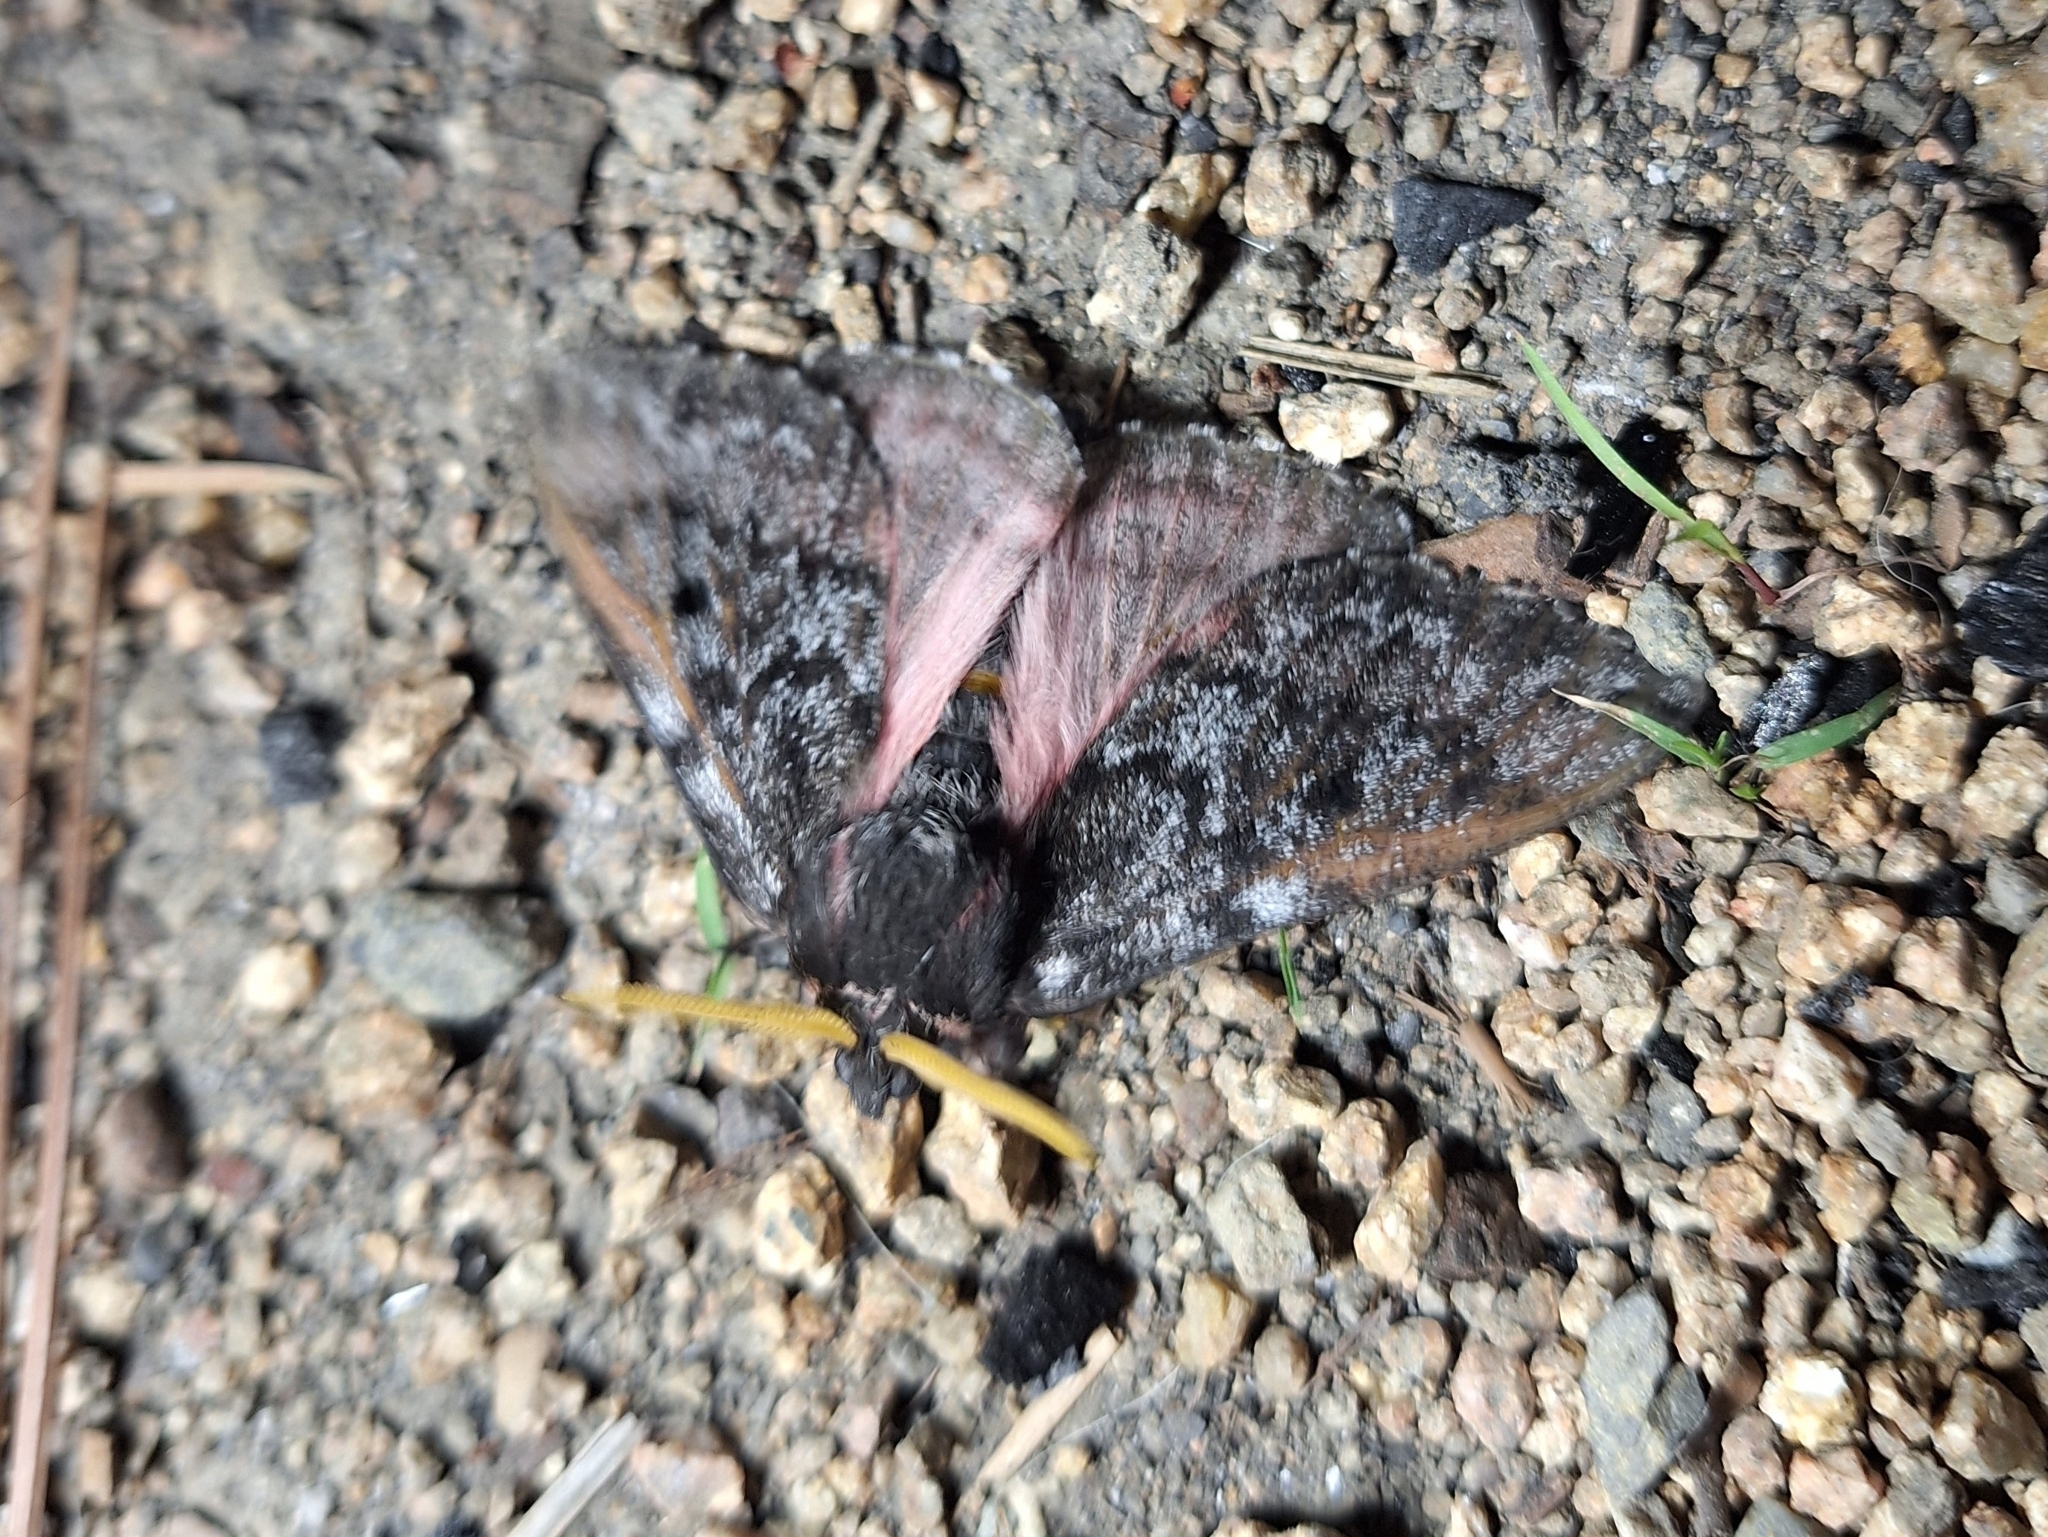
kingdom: Animalia
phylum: Arthropoda
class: Insecta
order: Lepidoptera
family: Saturniidae
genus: Coloradia
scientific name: Coloradia pandora
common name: Pandora pinemoth
